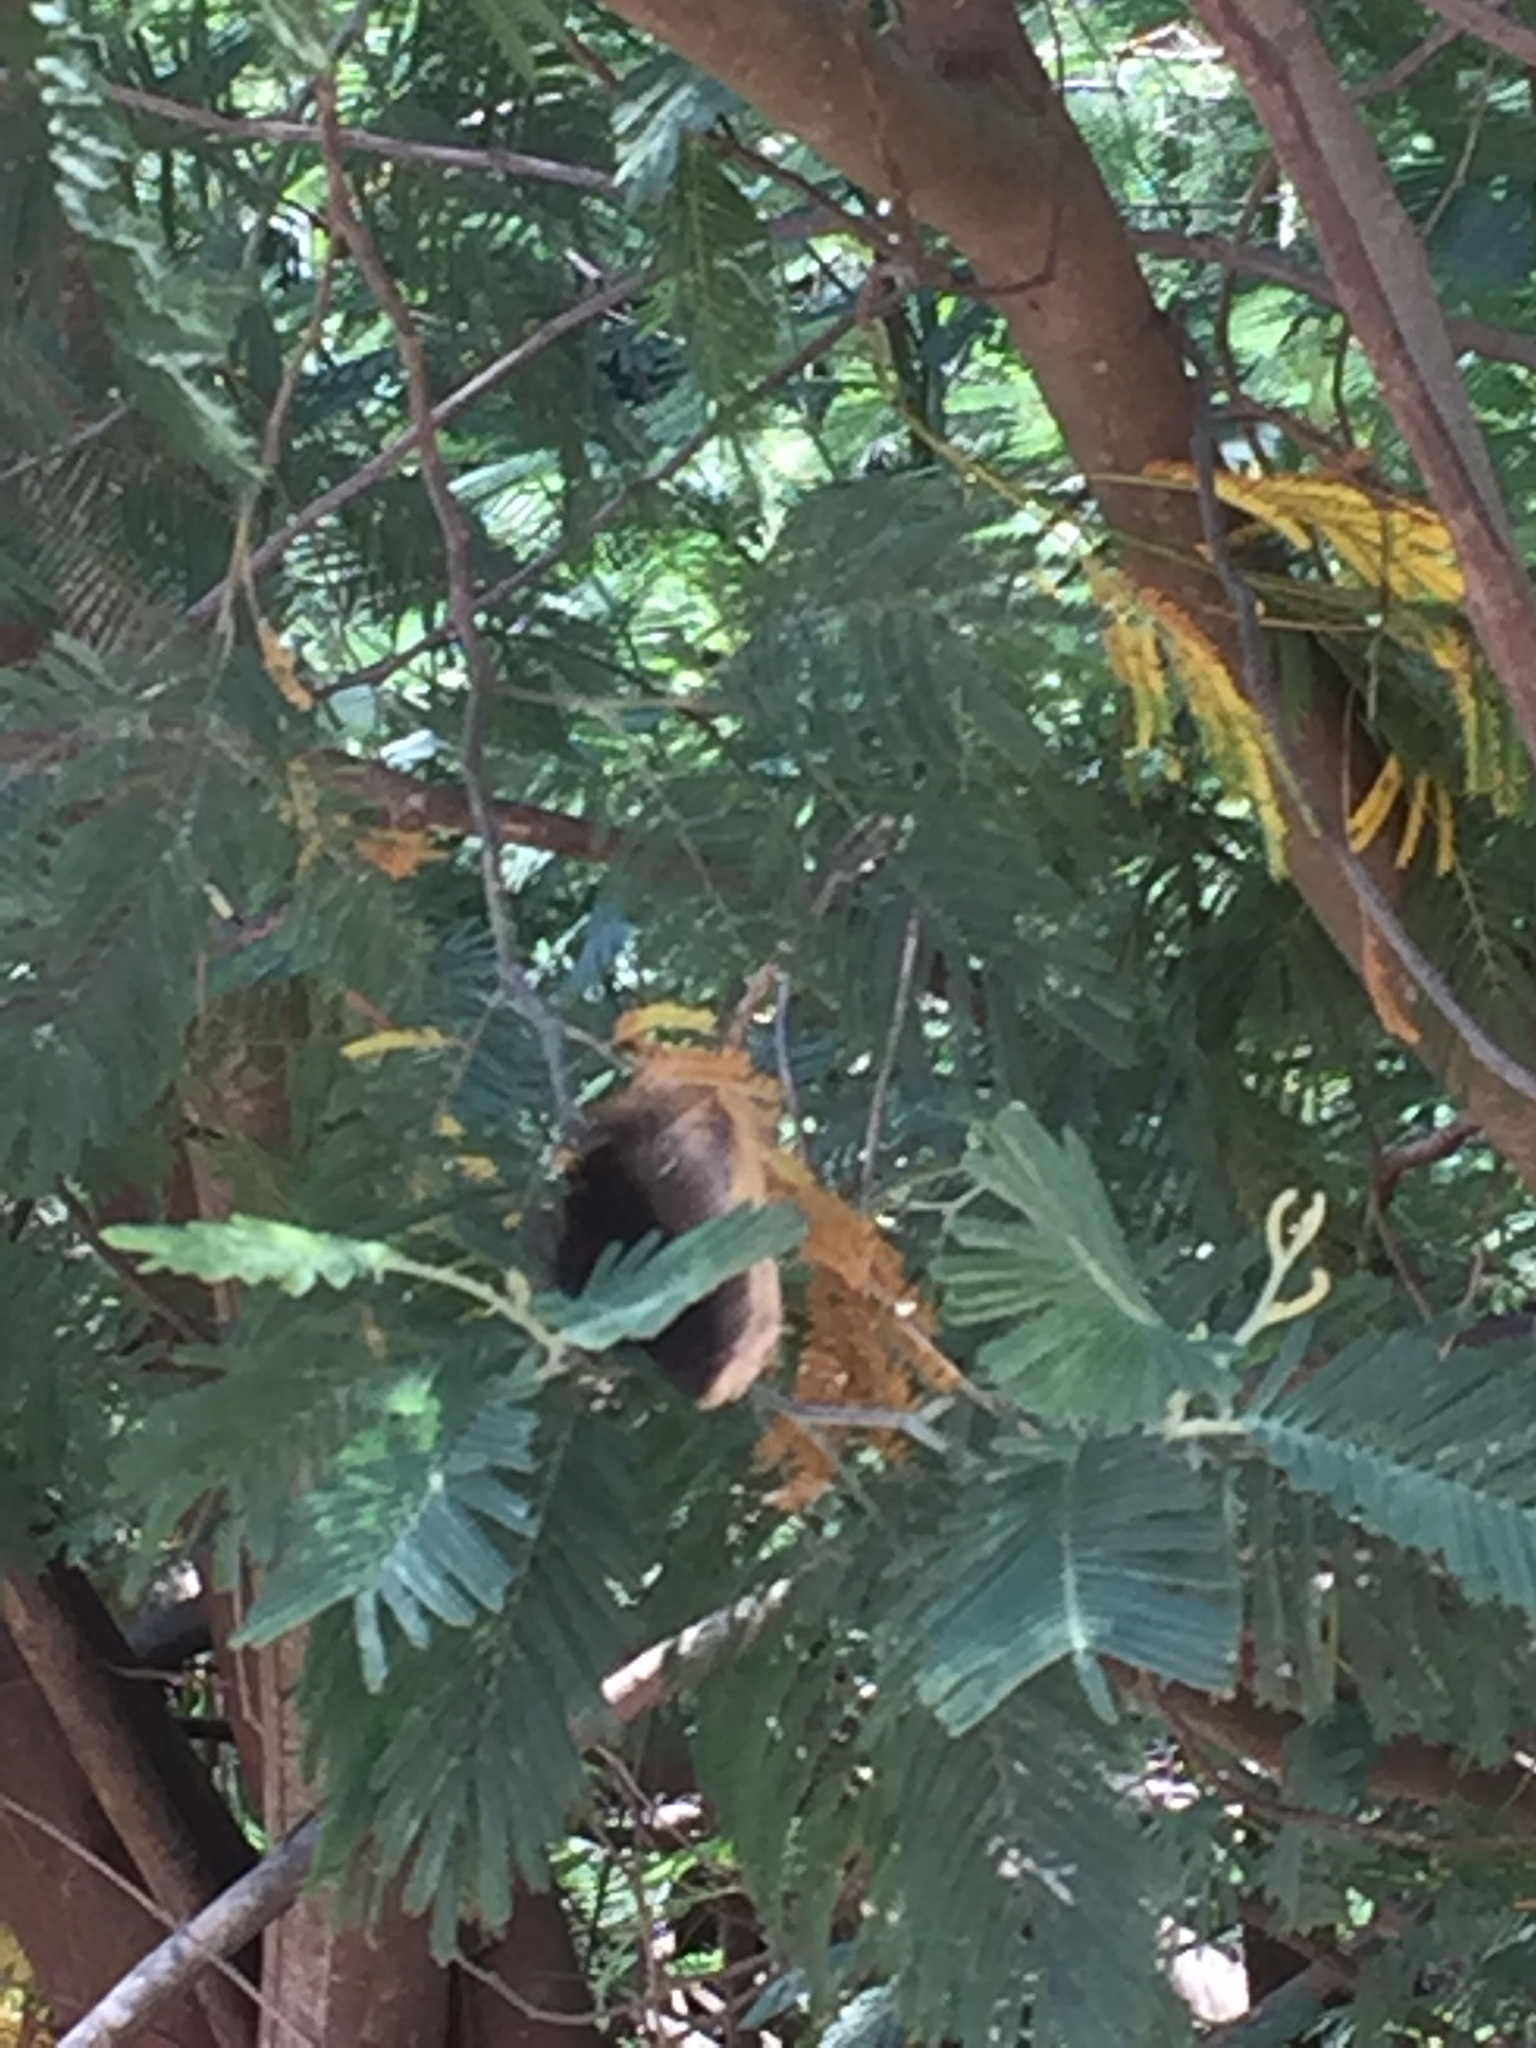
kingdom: Animalia
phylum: Arthropoda
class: Insecta
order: Lepidoptera
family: Nymphalidae
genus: Nymphalis
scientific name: Nymphalis antiopa
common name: Camberwell beauty
